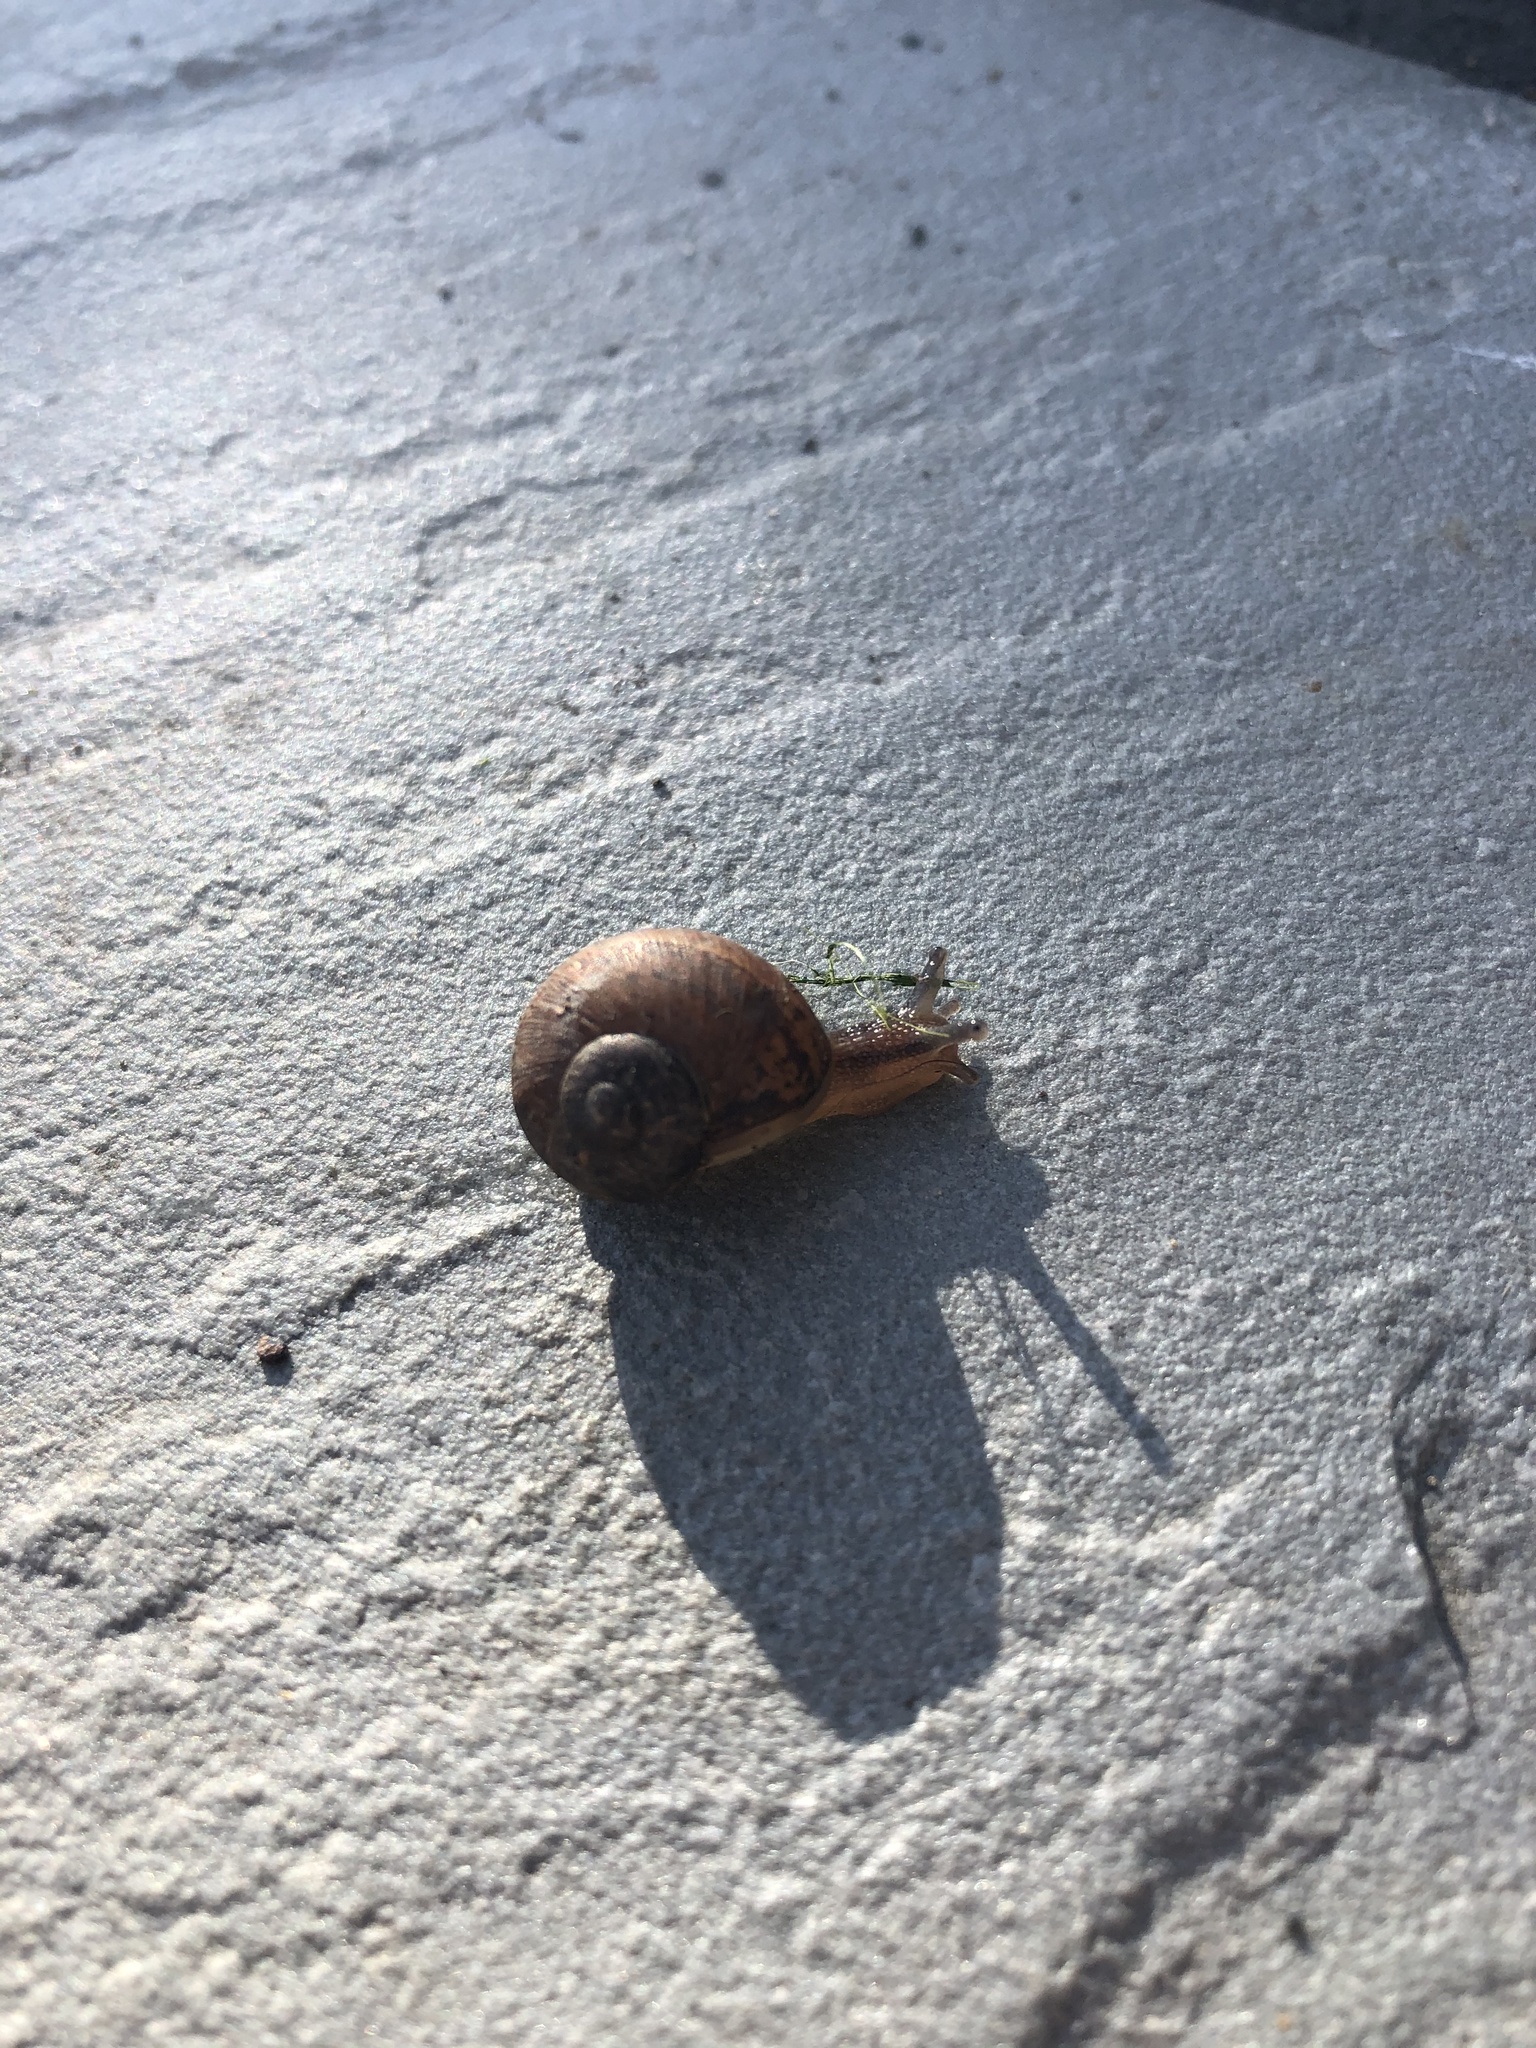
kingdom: Animalia
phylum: Mollusca
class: Gastropoda
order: Stylommatophora
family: Helicidae
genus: Cornu
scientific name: Cornu aspersum
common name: Brown garden snail
